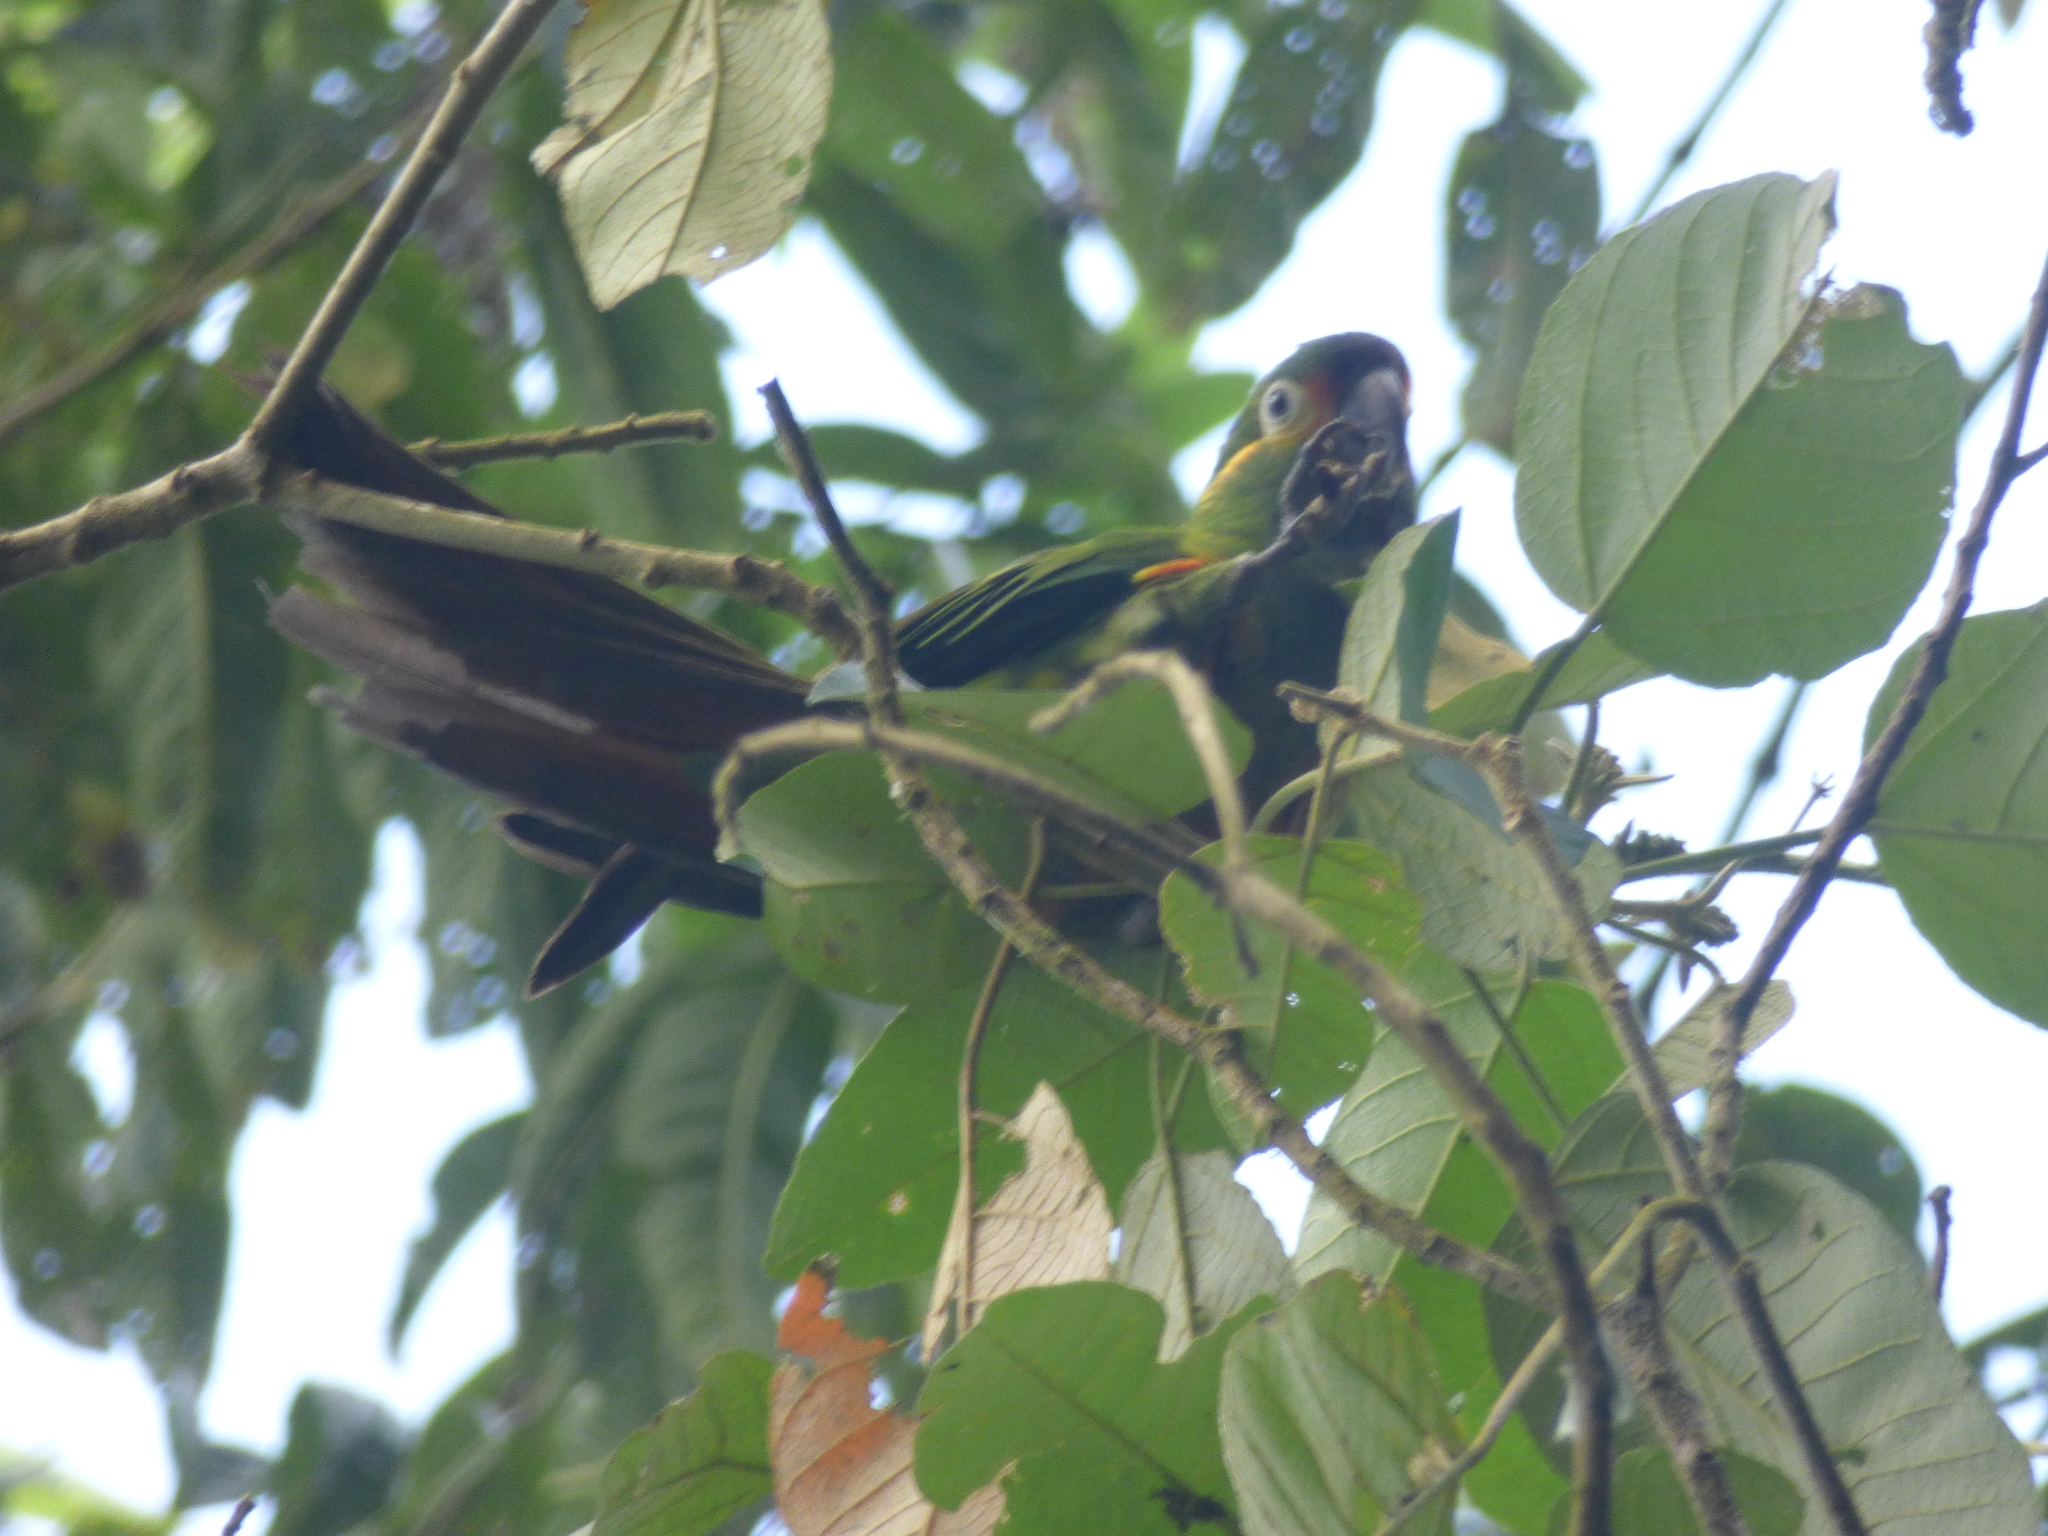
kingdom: Animalia
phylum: Chordata
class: Aves
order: Psittaciformes
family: Psittacidae
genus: Leptosittaca
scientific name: Leptosittaca branickii
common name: Golden-plumed parakeet
